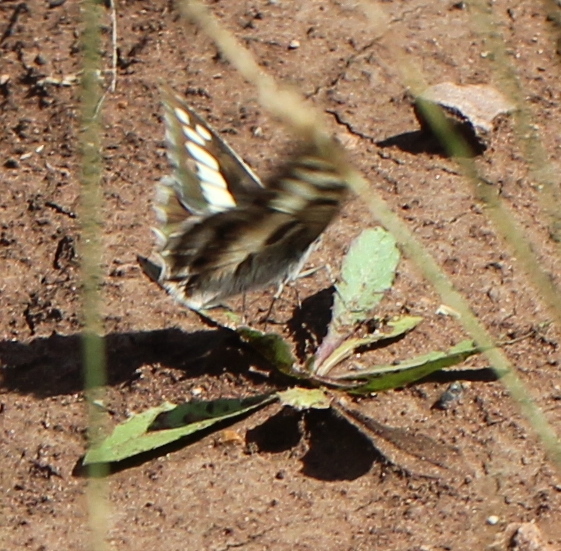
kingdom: Animalia
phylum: Arthropoda
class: Insecta
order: Lepidoptera
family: Nymphalidae
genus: Satyrus
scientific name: Satyrus briseis
